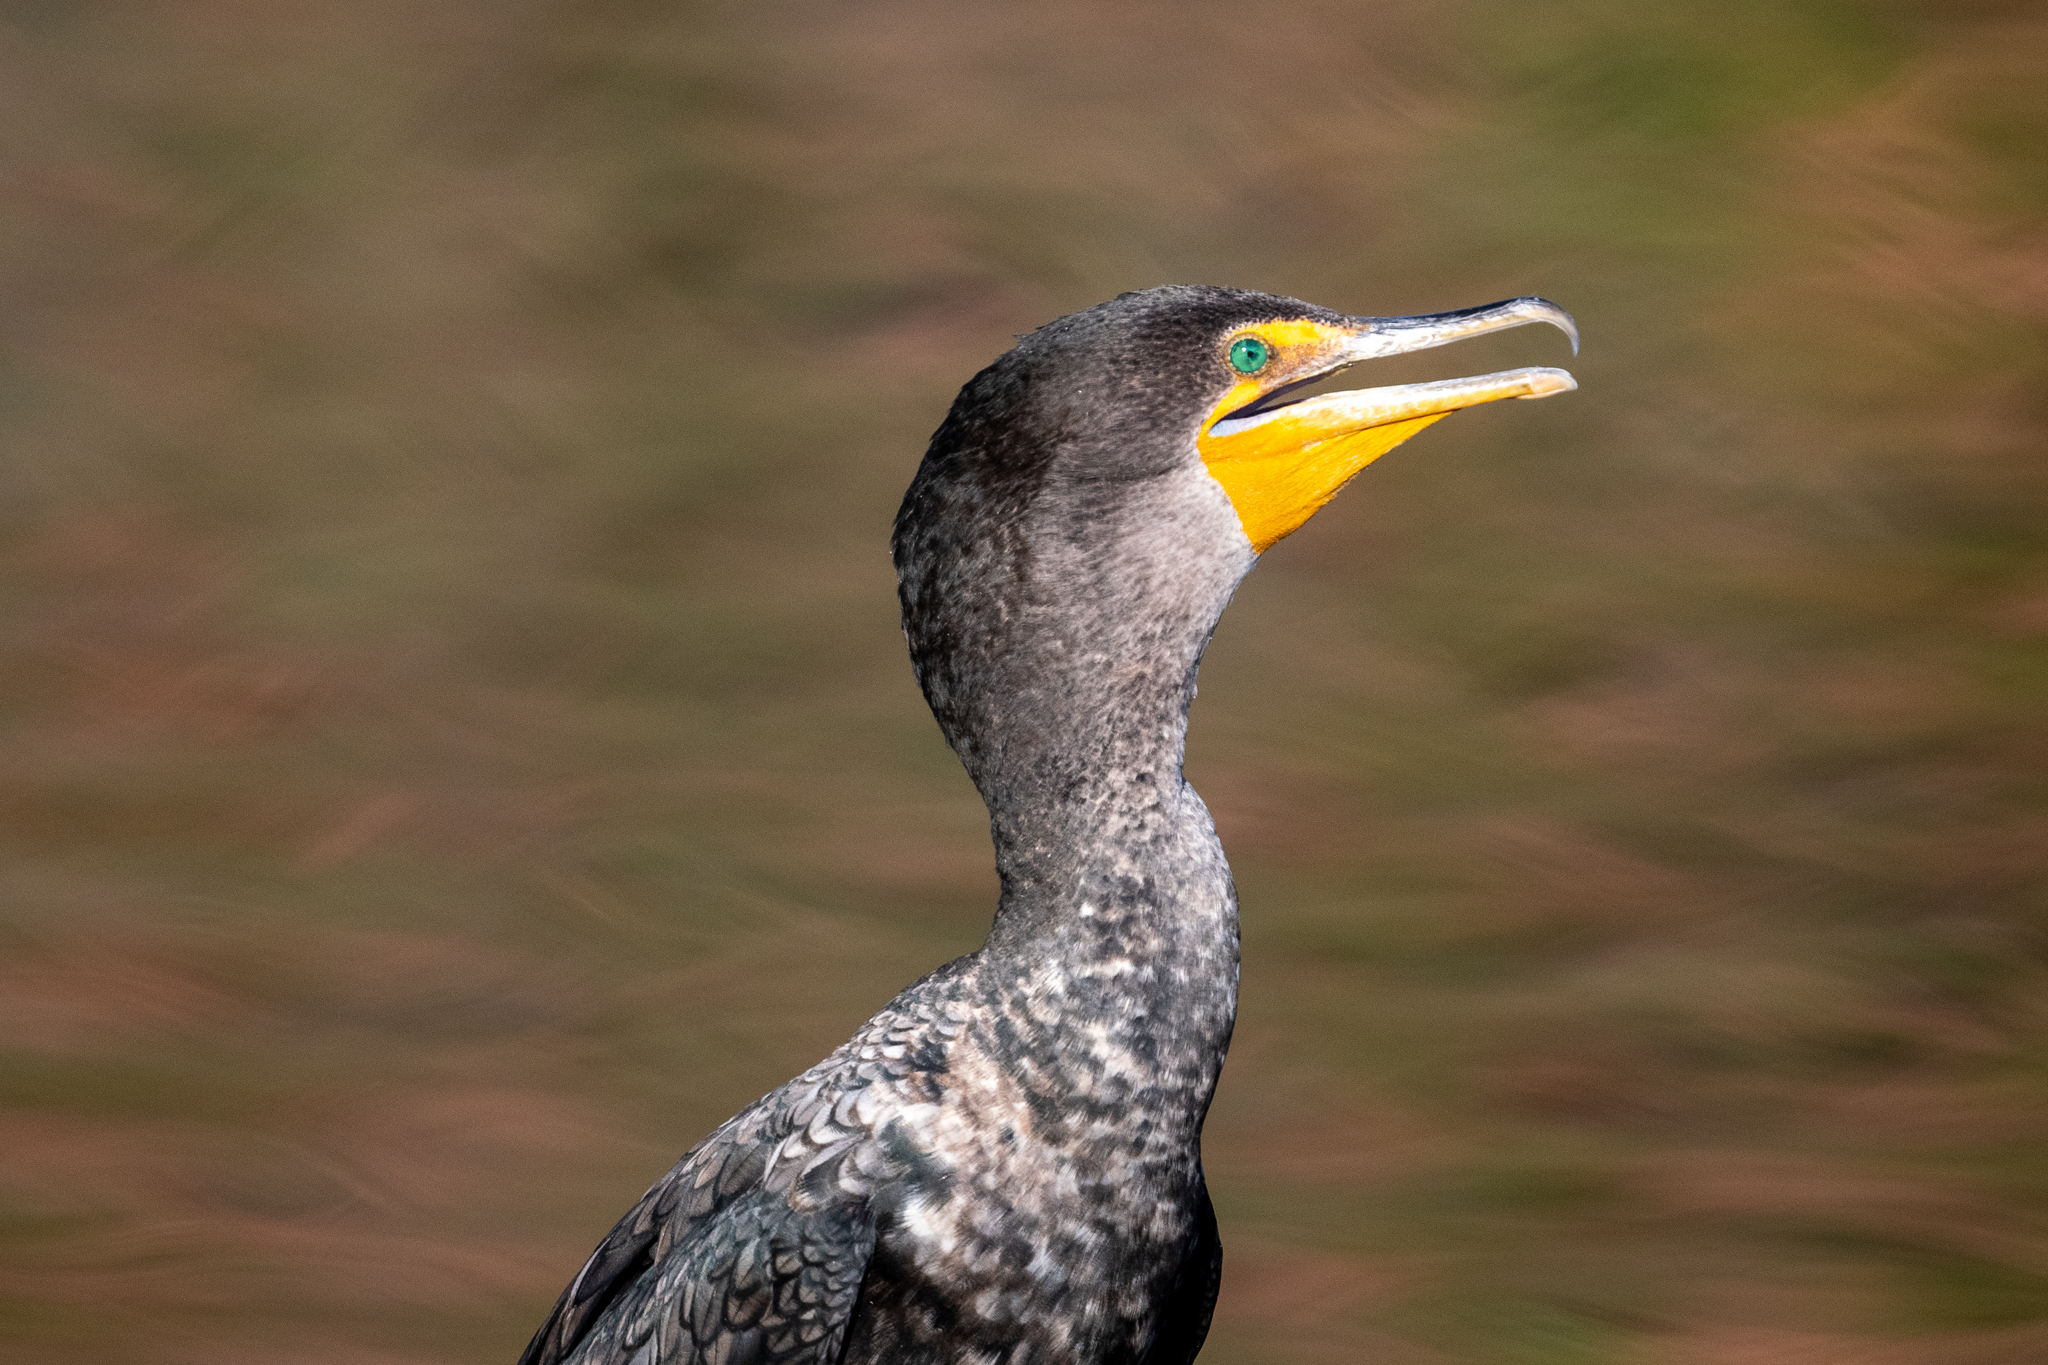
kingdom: Animalia
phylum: Chordata
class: Aves
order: Suliformes
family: Phalacrocoracidae
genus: Phalacrocorax
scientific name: Phalacrocorax auritus
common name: Double-crested cormorant
